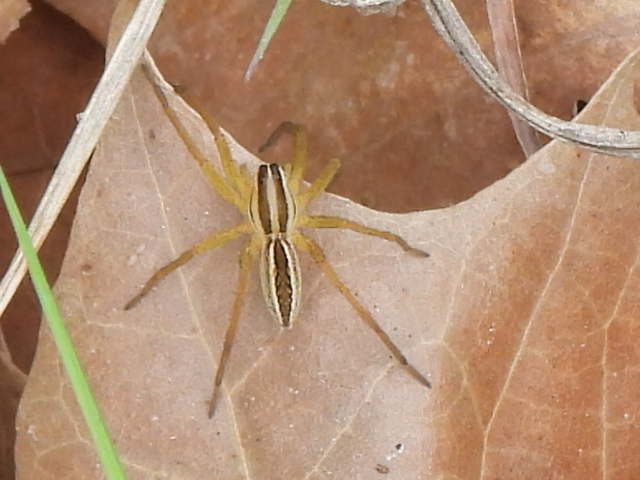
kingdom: Animalia
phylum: Arthropoda
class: Arachnida
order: Araneae
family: Lycosidae
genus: Rabidosa
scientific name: Rabidosa rabida
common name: Rabid wolf spider
